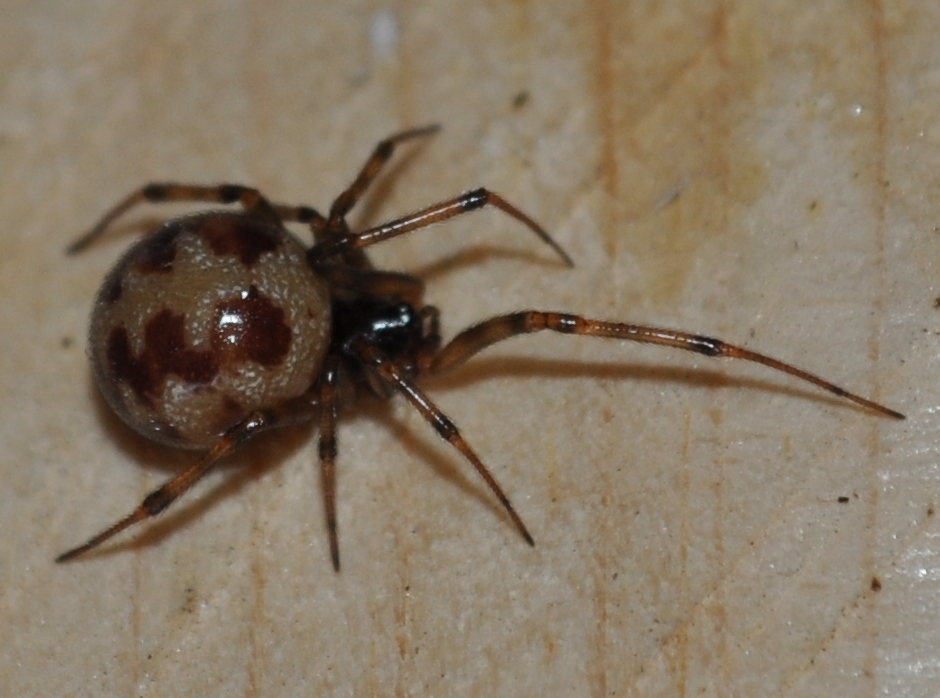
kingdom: Animalia
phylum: Arthropoda
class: Arachnida
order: Araneae
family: Theridiidae
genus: Steatoda
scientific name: Steatoda triangulosa
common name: Triangulate bud spider
